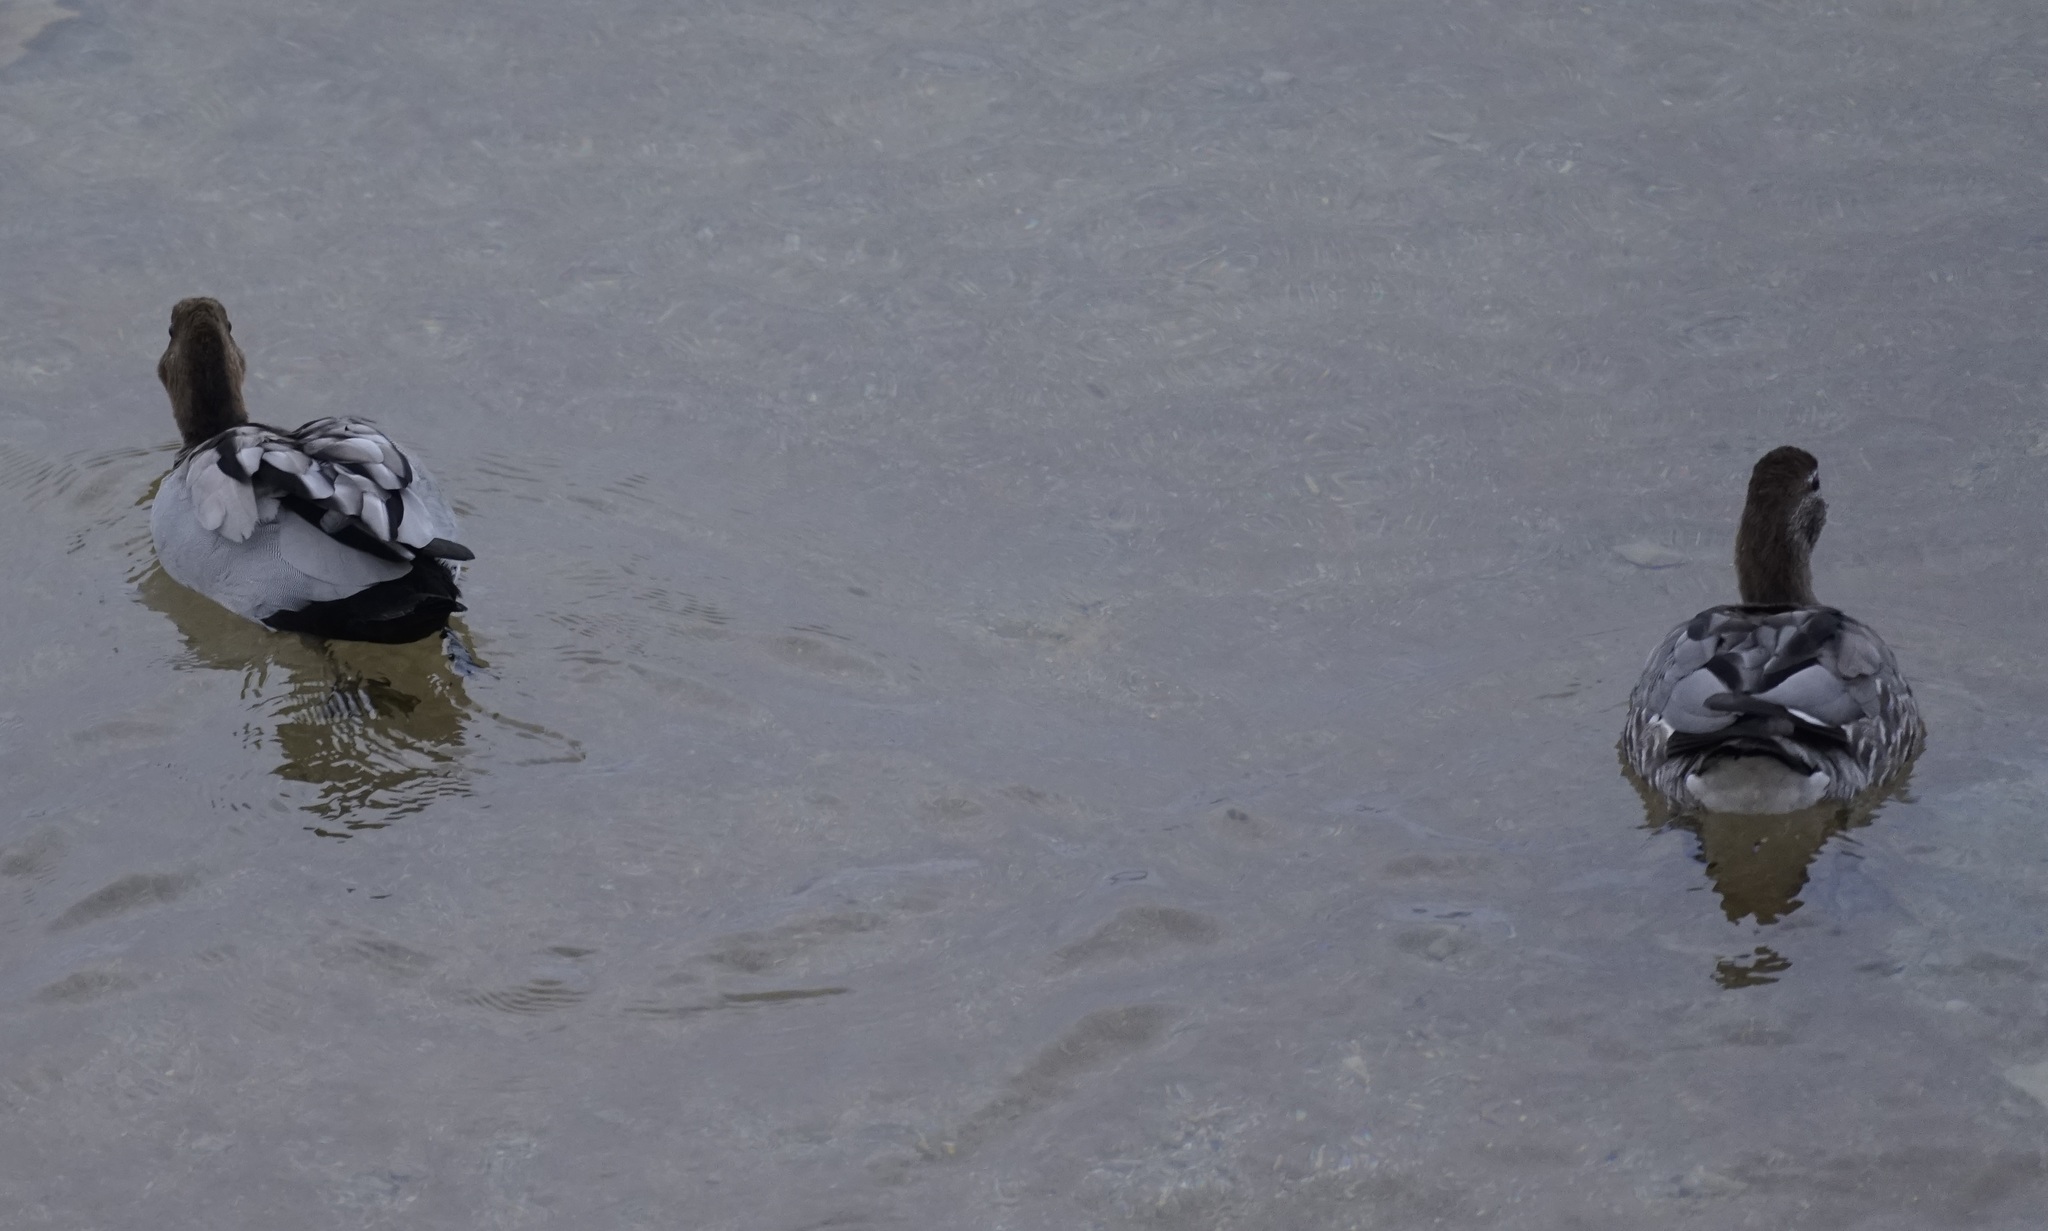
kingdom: Animalia
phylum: Chordata
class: Aves
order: Anseriformes
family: Anatidae
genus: Chenonetta
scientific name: Chenonetta jubata
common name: Maned duck
